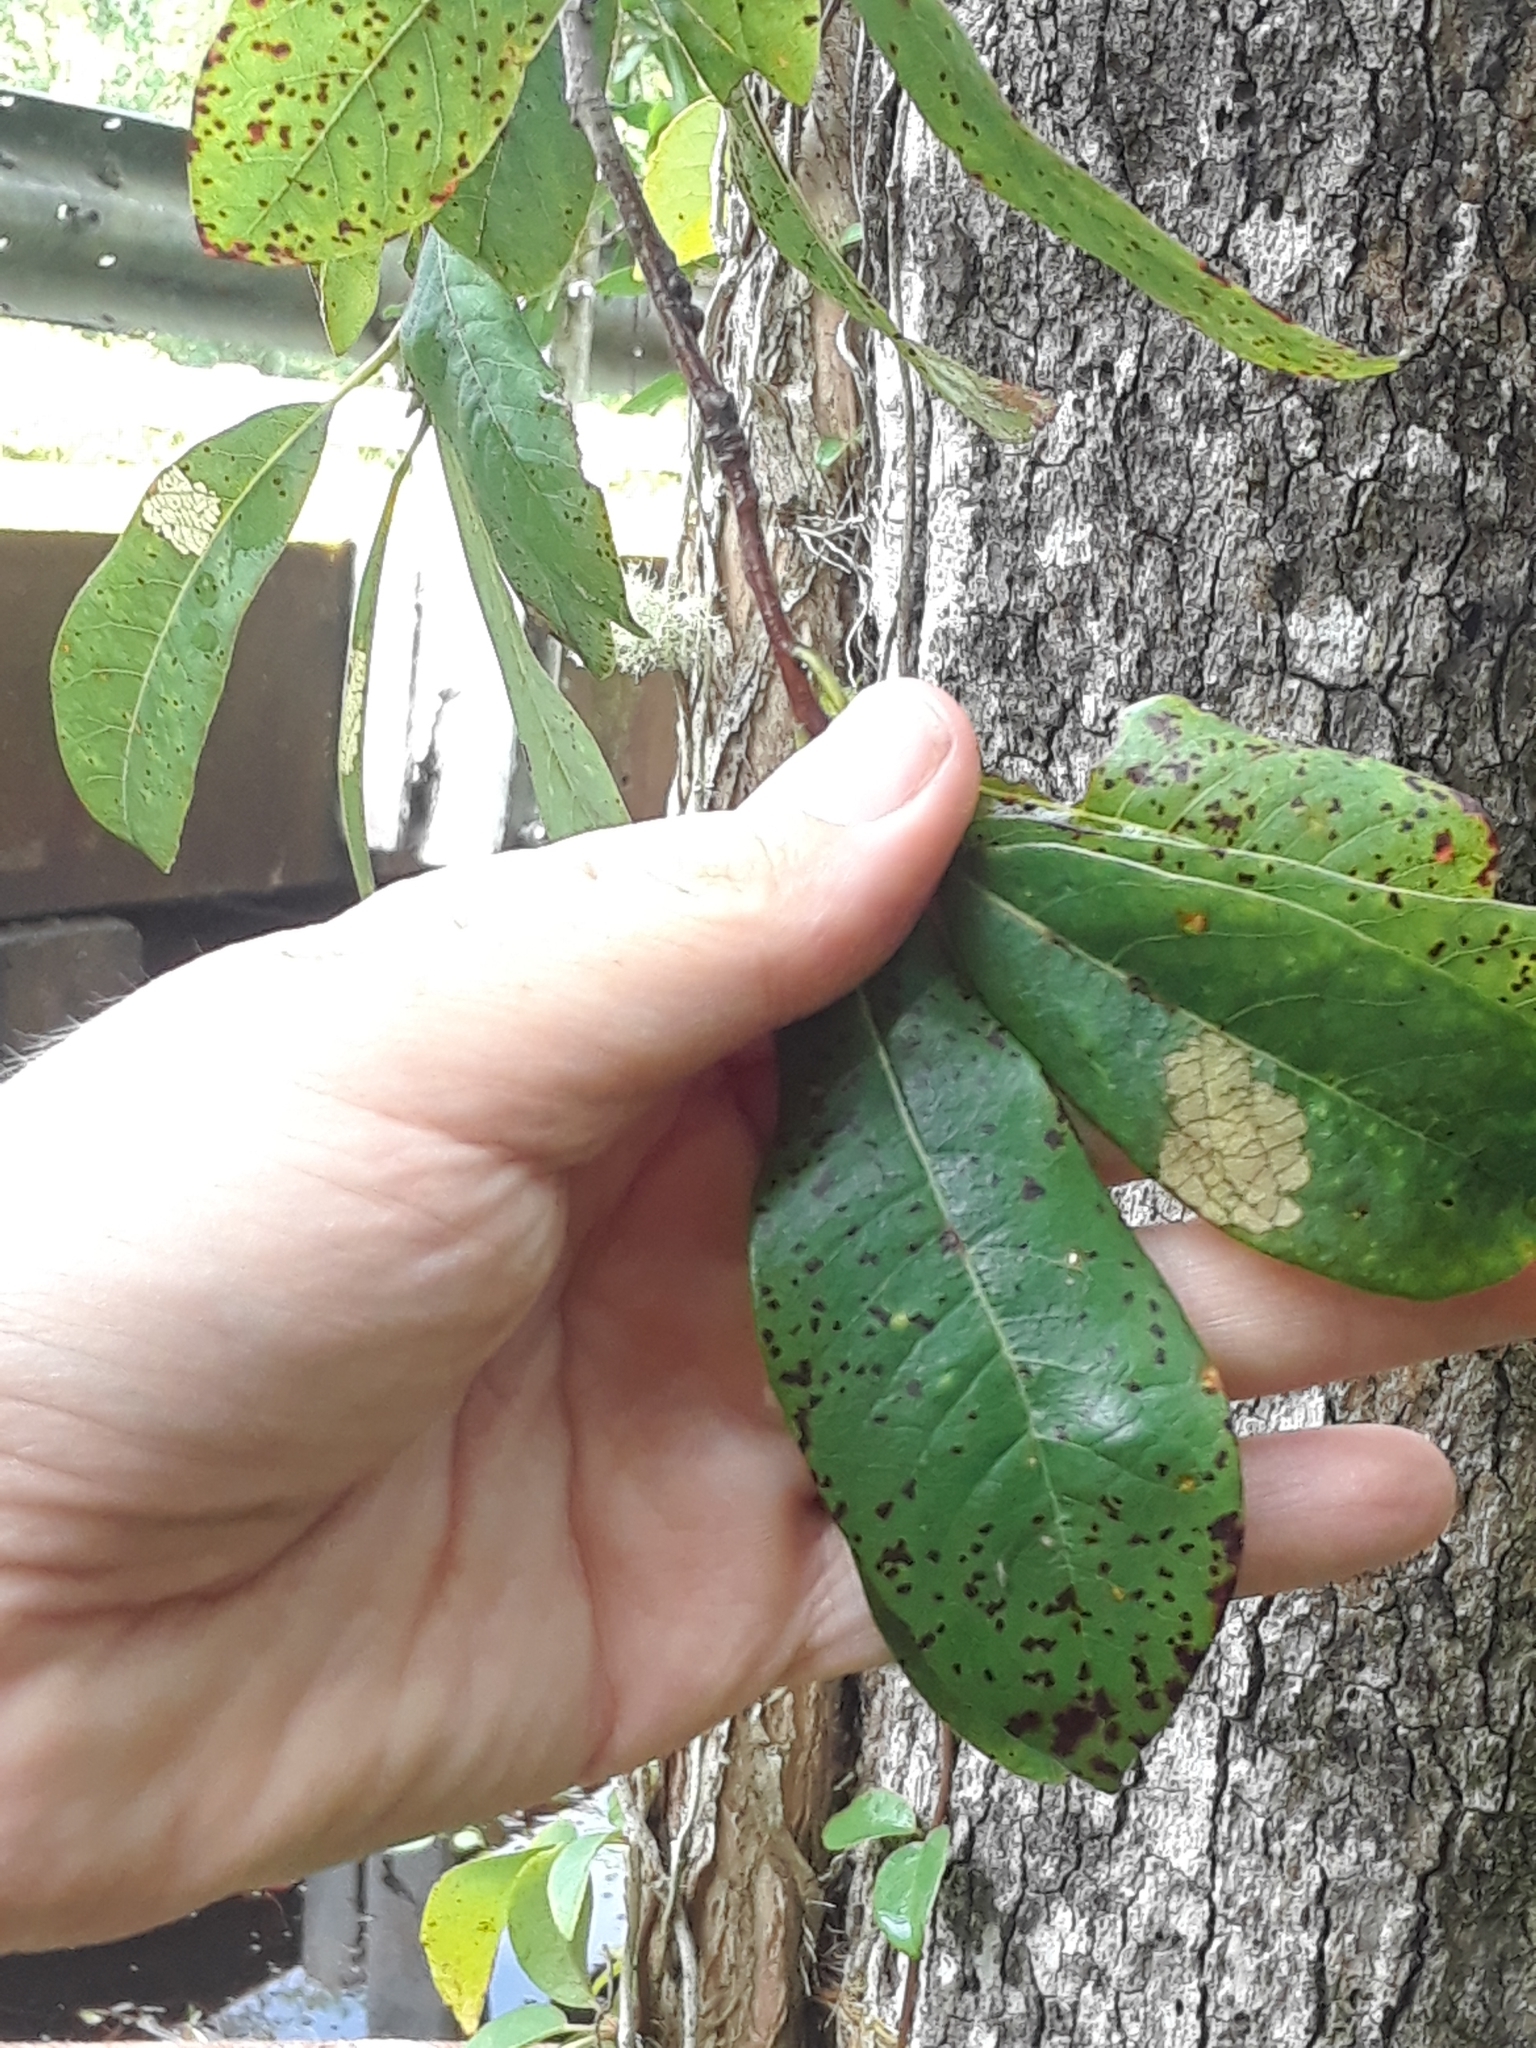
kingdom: Plantae
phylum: Tracheophyta
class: Magnoliopsida
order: Cornales
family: Nyssaceae
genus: Nyssa
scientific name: Nyssa biflora
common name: Swamp blackgum
